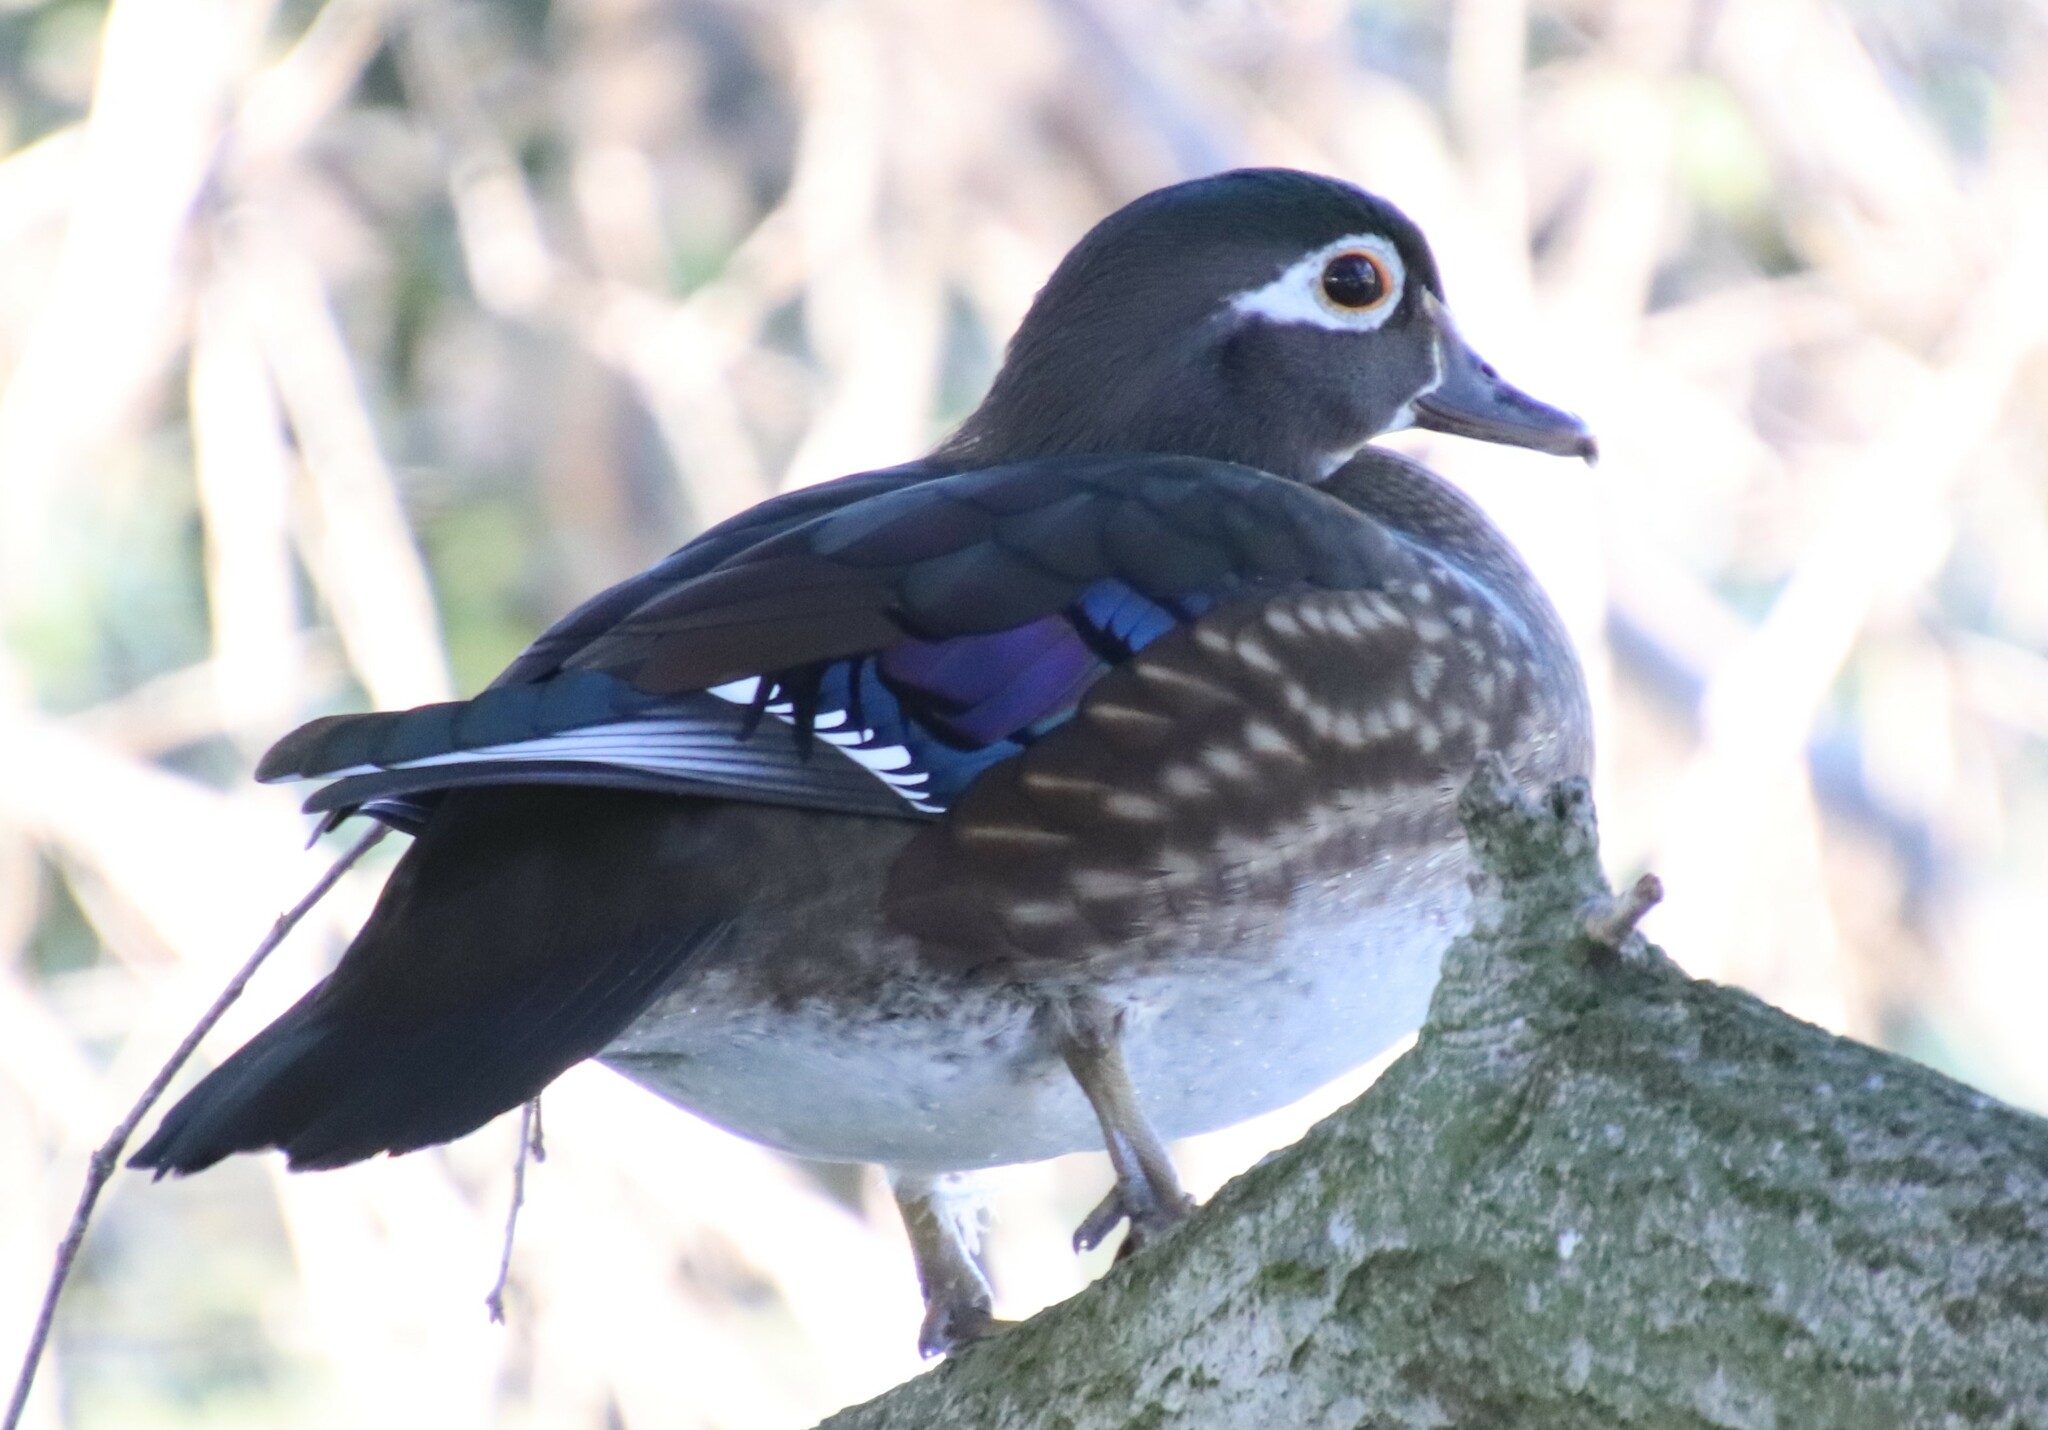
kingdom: Animalia
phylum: Chordata
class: Aves
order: Anseriformes
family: Anatidae
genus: Aix
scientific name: Aix sponsa
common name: Wood duck
